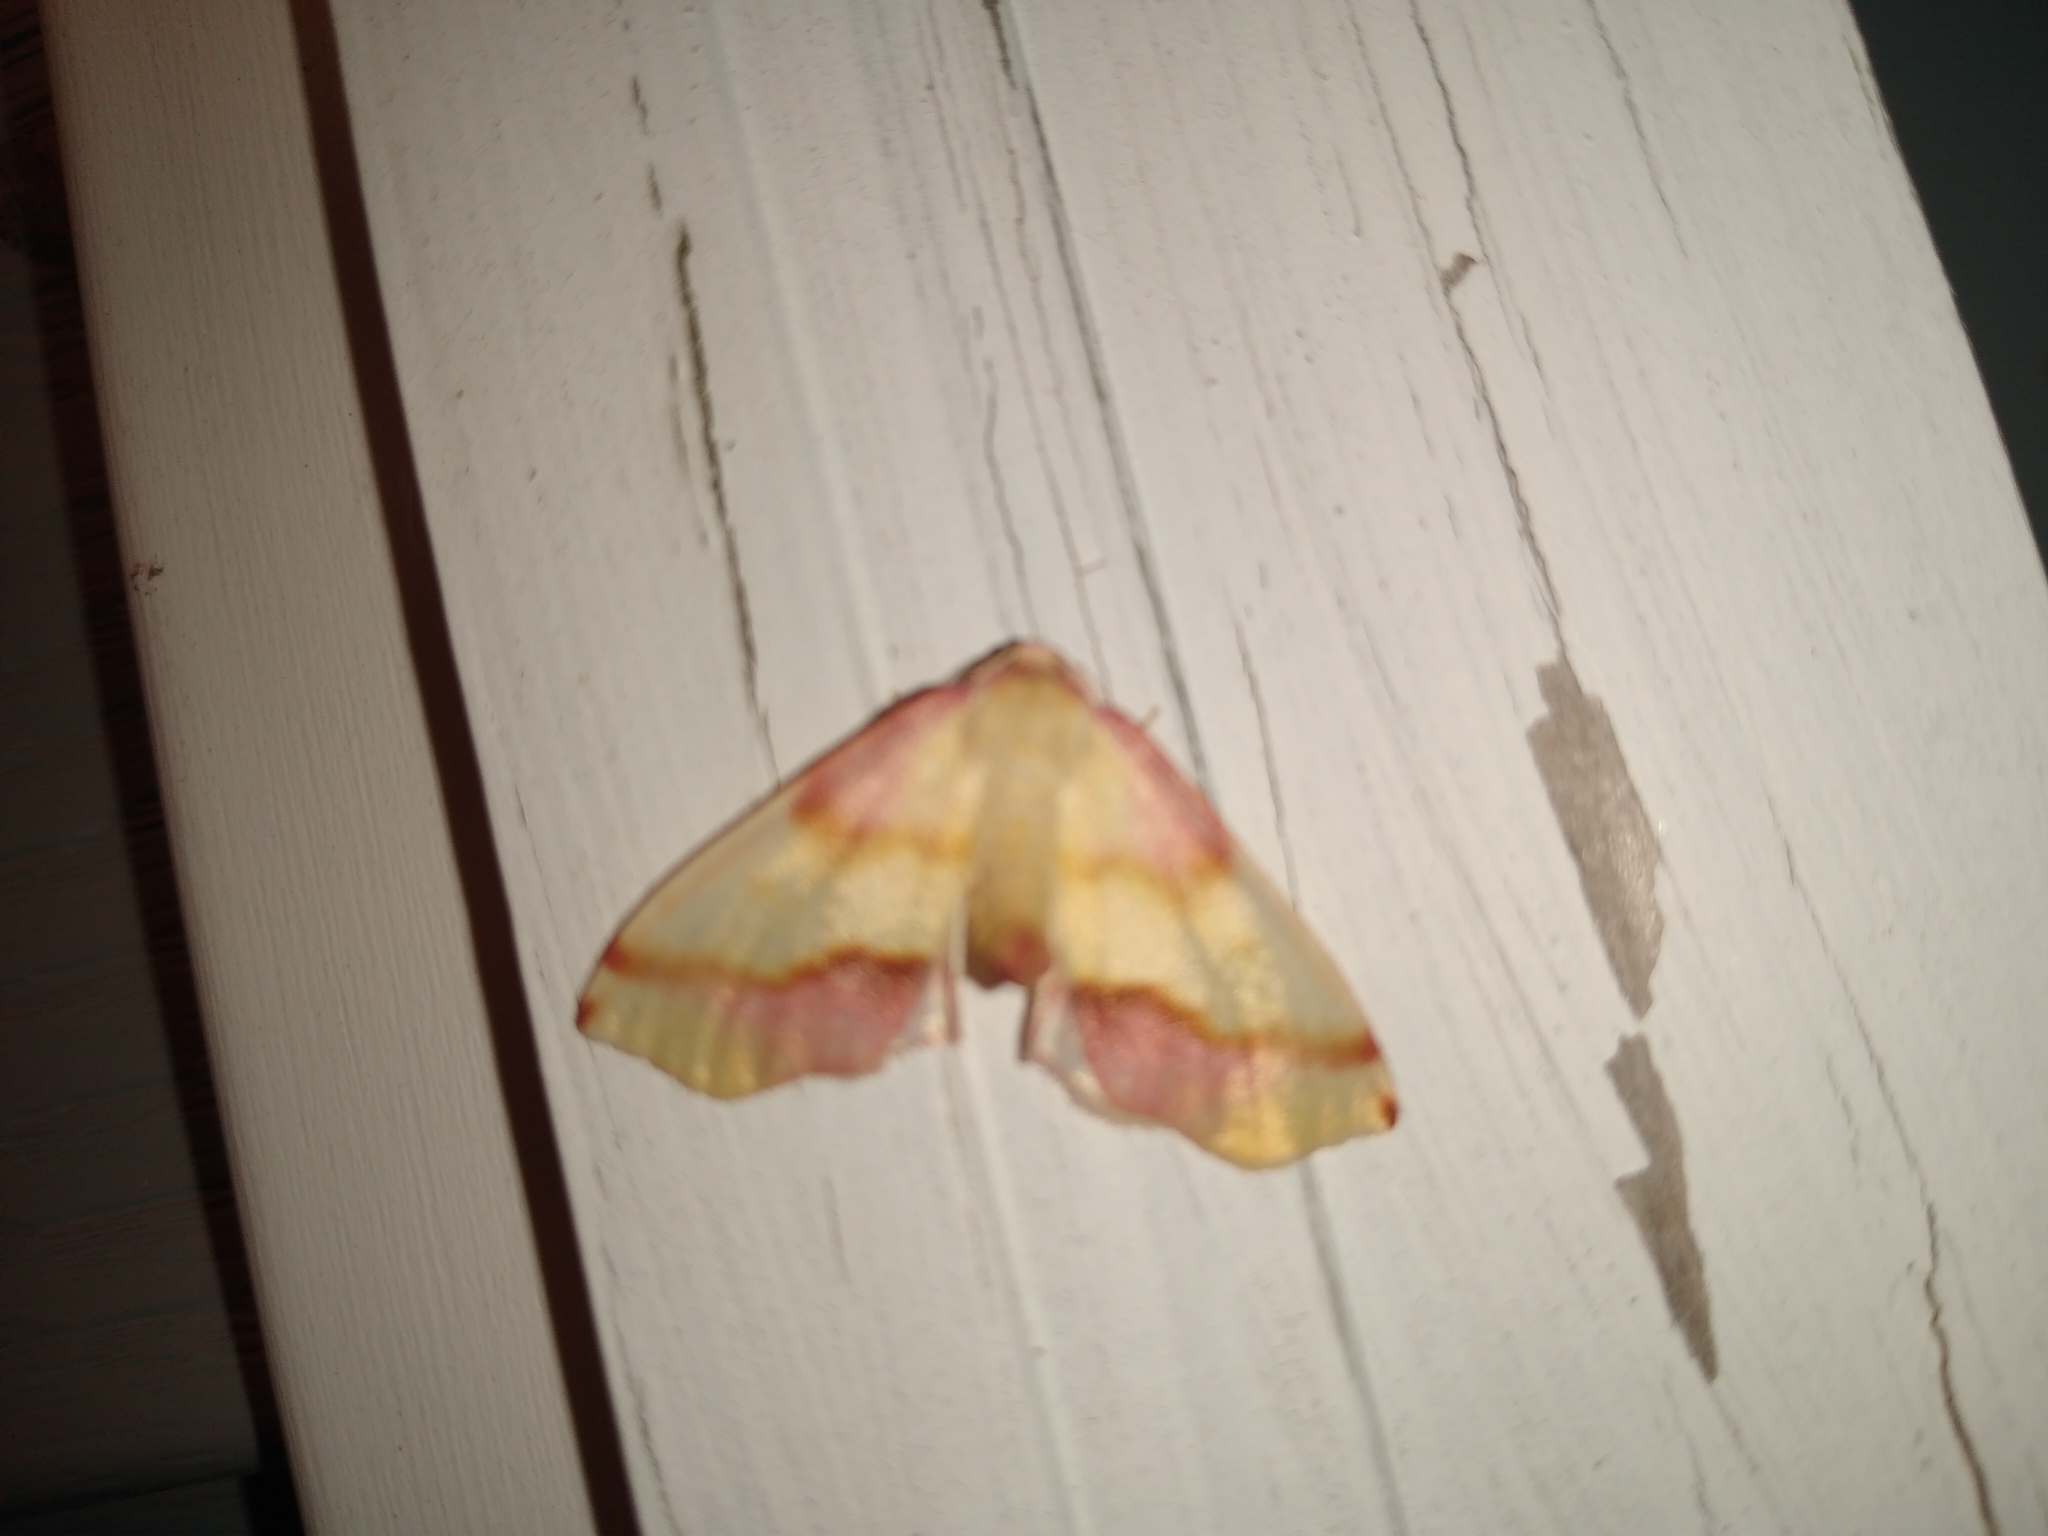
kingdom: Animalia
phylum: Arthropoda
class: Insecta
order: Lepidoptera
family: Geometridae
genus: Plagodis
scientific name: Plagodis serinaria
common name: Lemon plagodis
